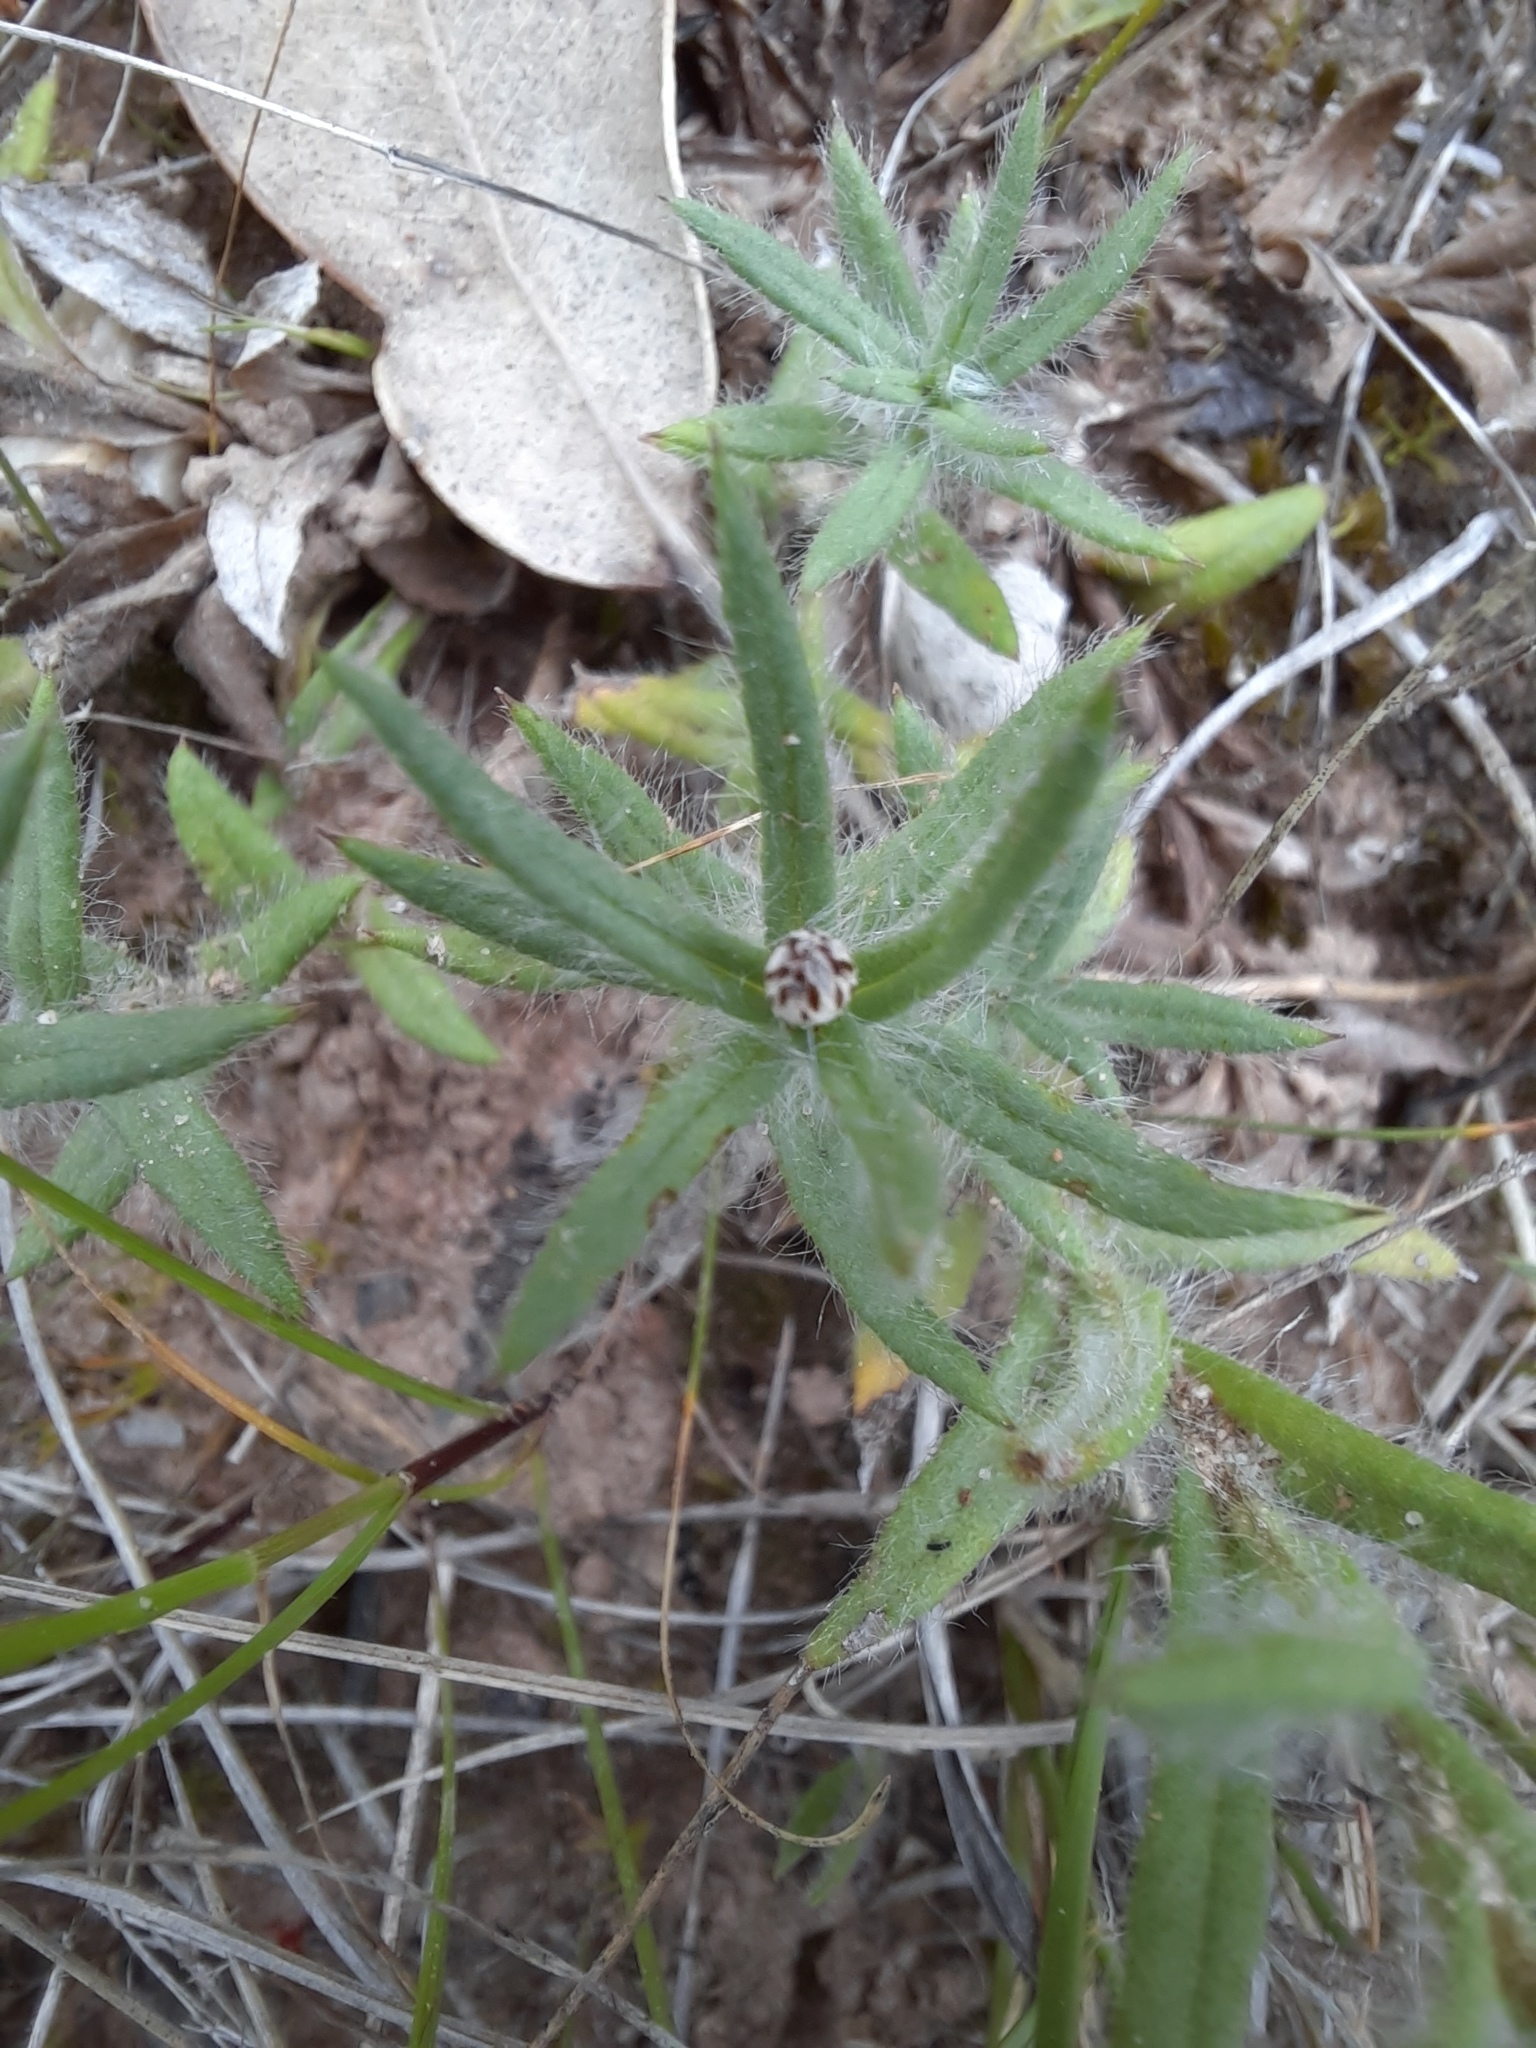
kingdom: Plantae
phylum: Tracheophyta
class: Magnoliopsida
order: Asterales
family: Asteraceae
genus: Leptorhynchos
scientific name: Leptorhynchos squamatus
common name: Scaly-buttons
